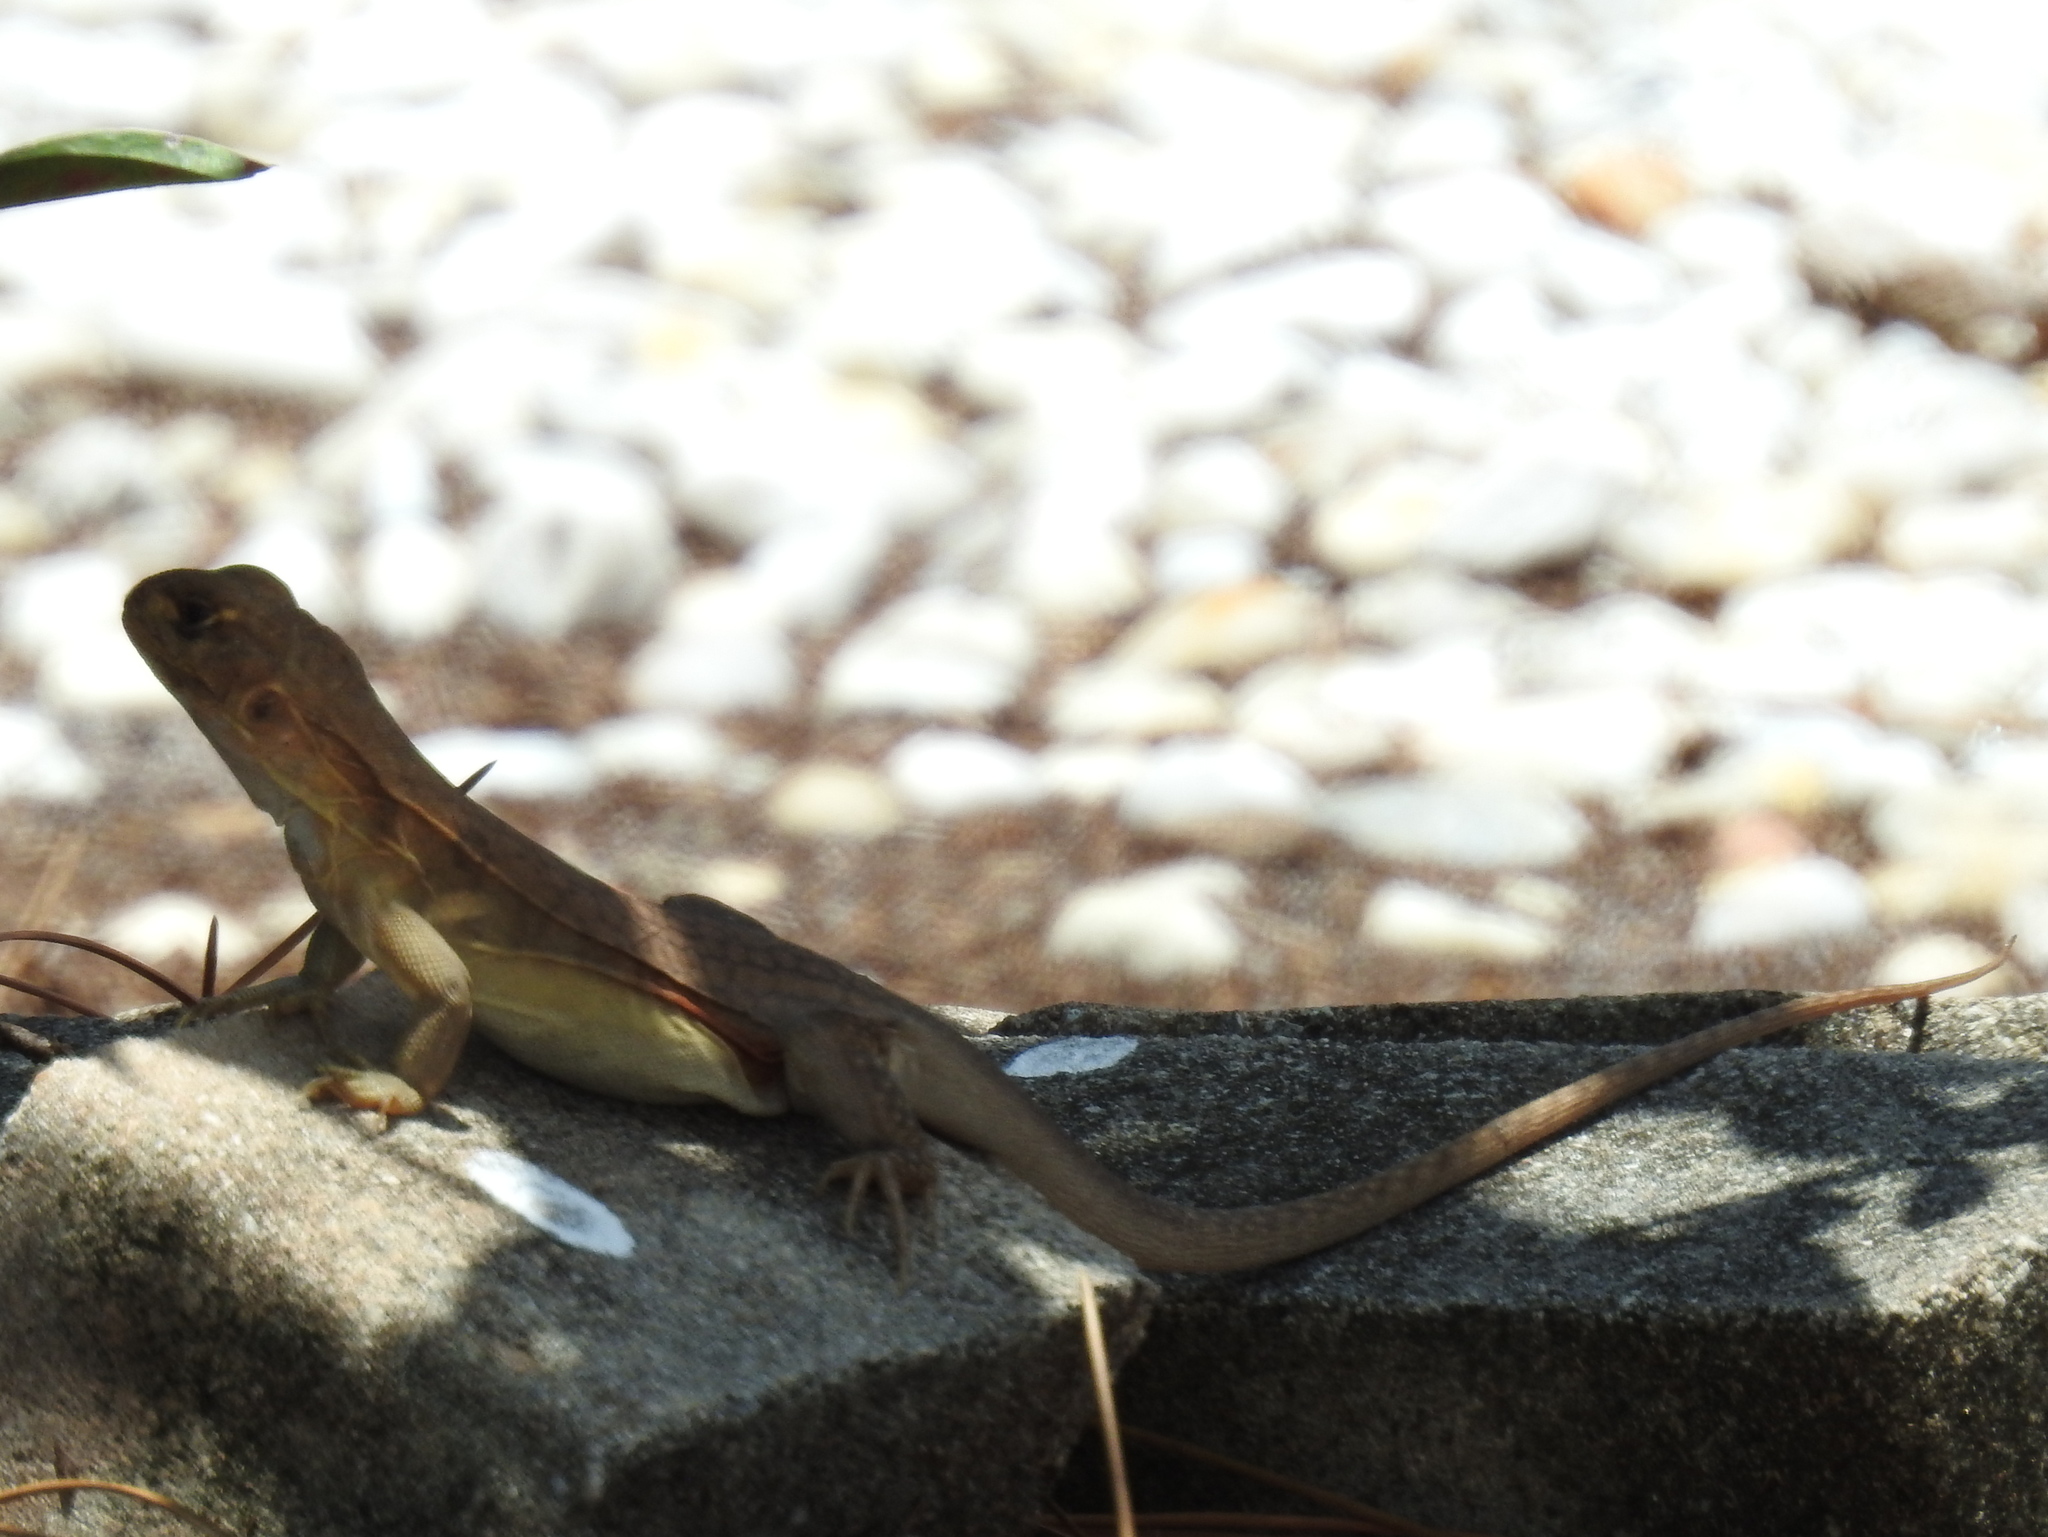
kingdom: Animalia
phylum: Chordata
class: Squamata
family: Agamidae
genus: Leiolepis
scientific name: Leiolepis rubritaeniata
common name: Reeves' butterfly lizard
